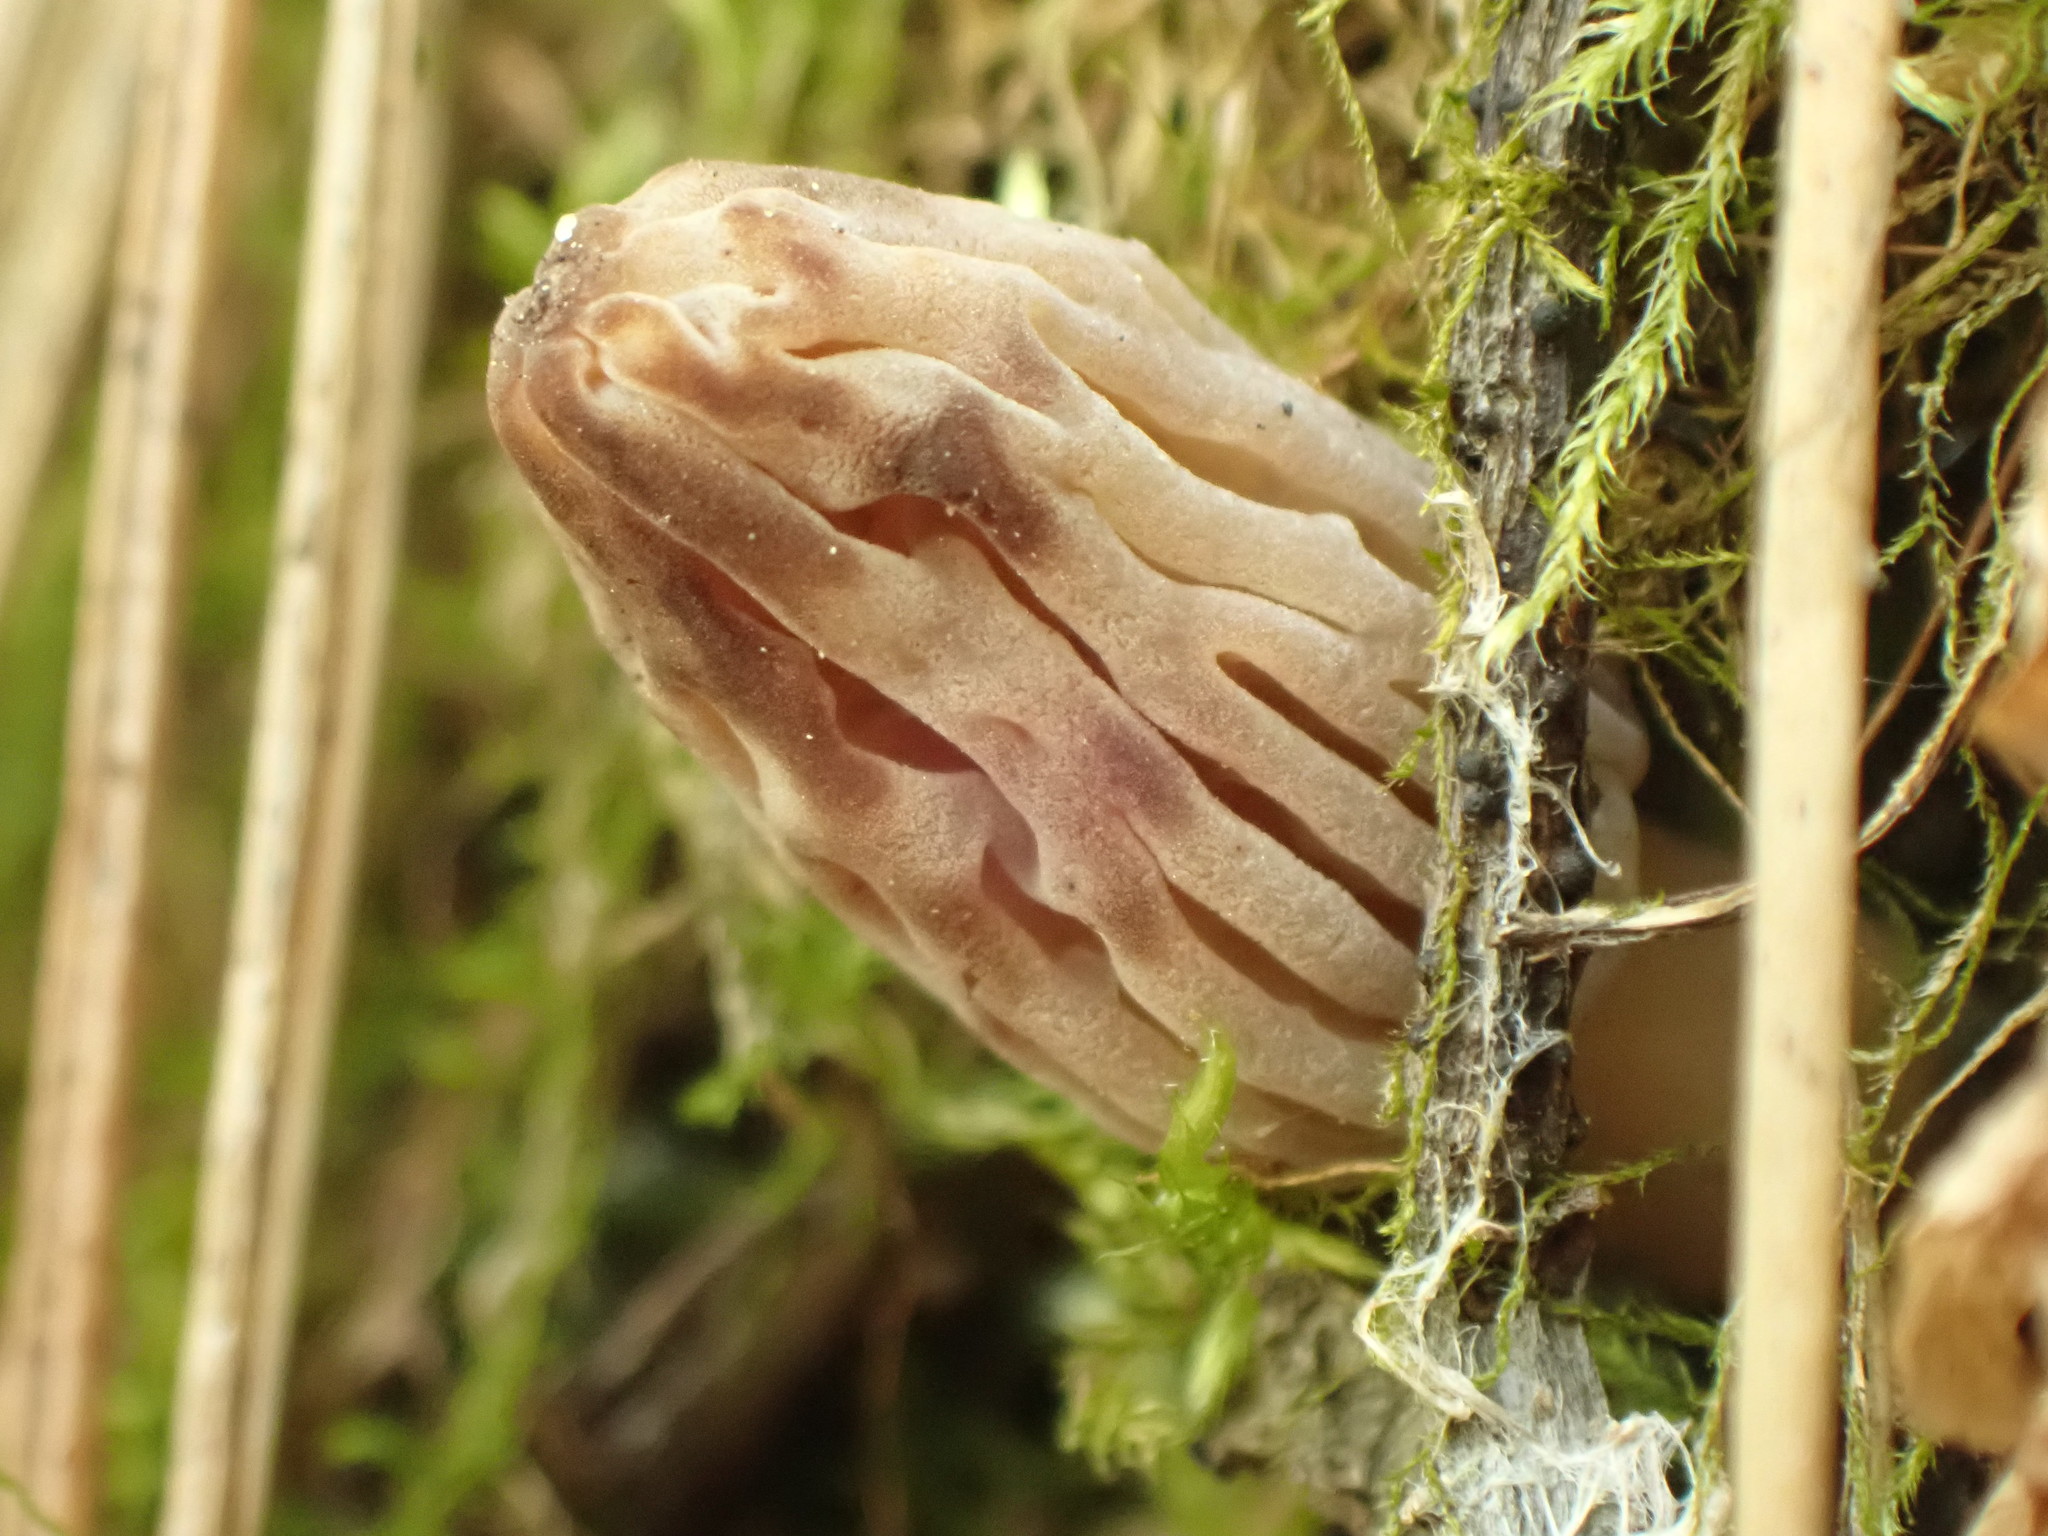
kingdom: Fungi
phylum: Ascomycota
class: Pezizomycetes
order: Pezizales
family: Morchellaceae
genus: Morchella
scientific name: Morchella pulchella
